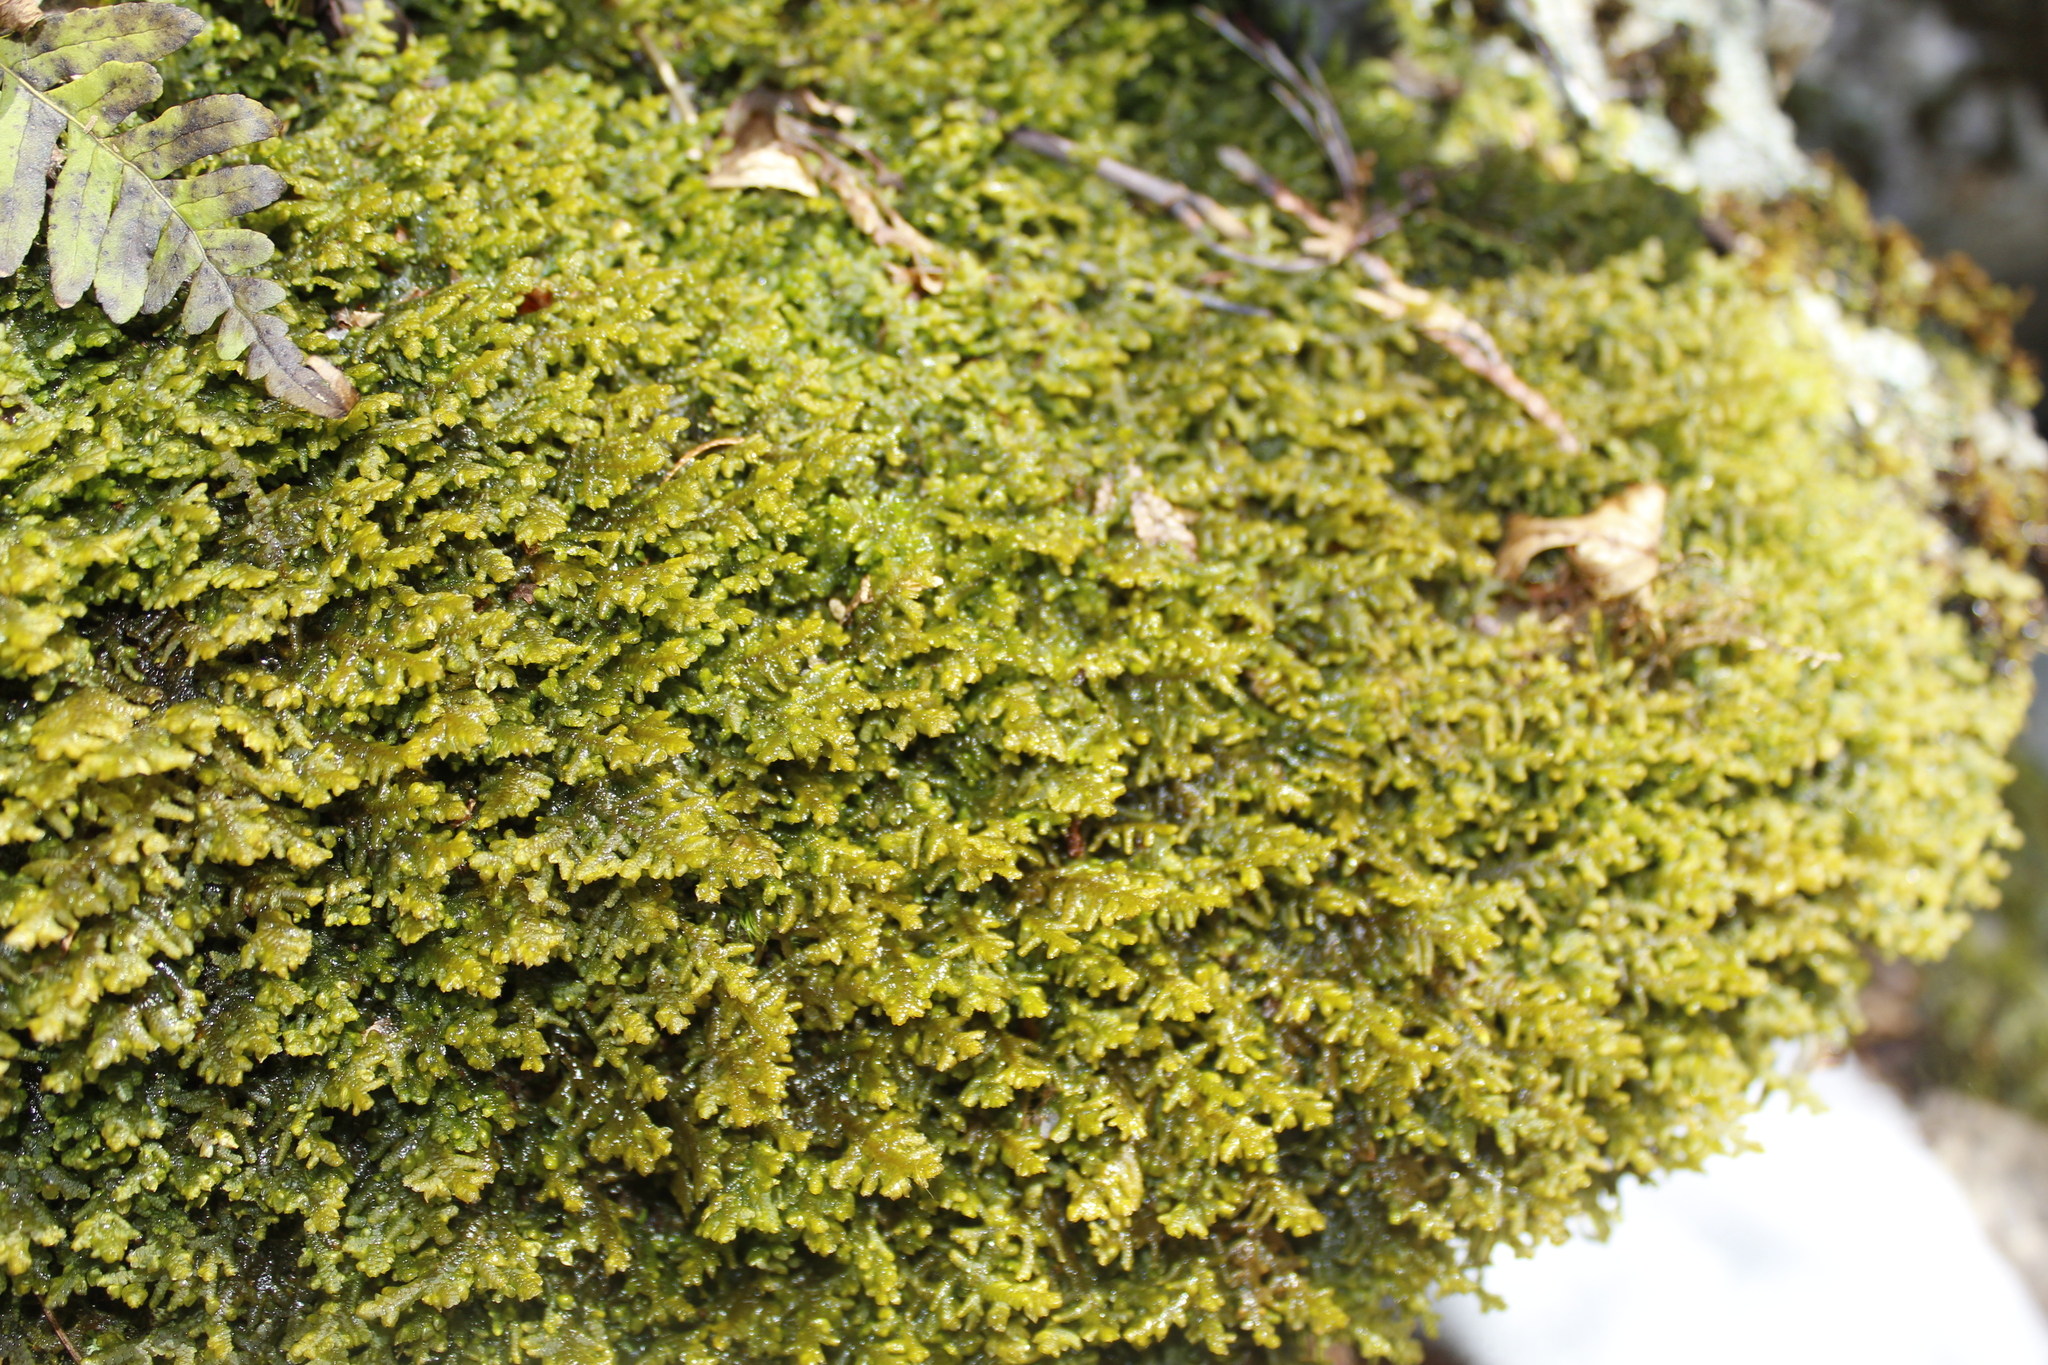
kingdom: Plantae
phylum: Marchantiophyta
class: Jungermanniopsida
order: Porellales
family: Porellaceae
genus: Porella
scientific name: Porella platyphylla
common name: Wall scalewort
